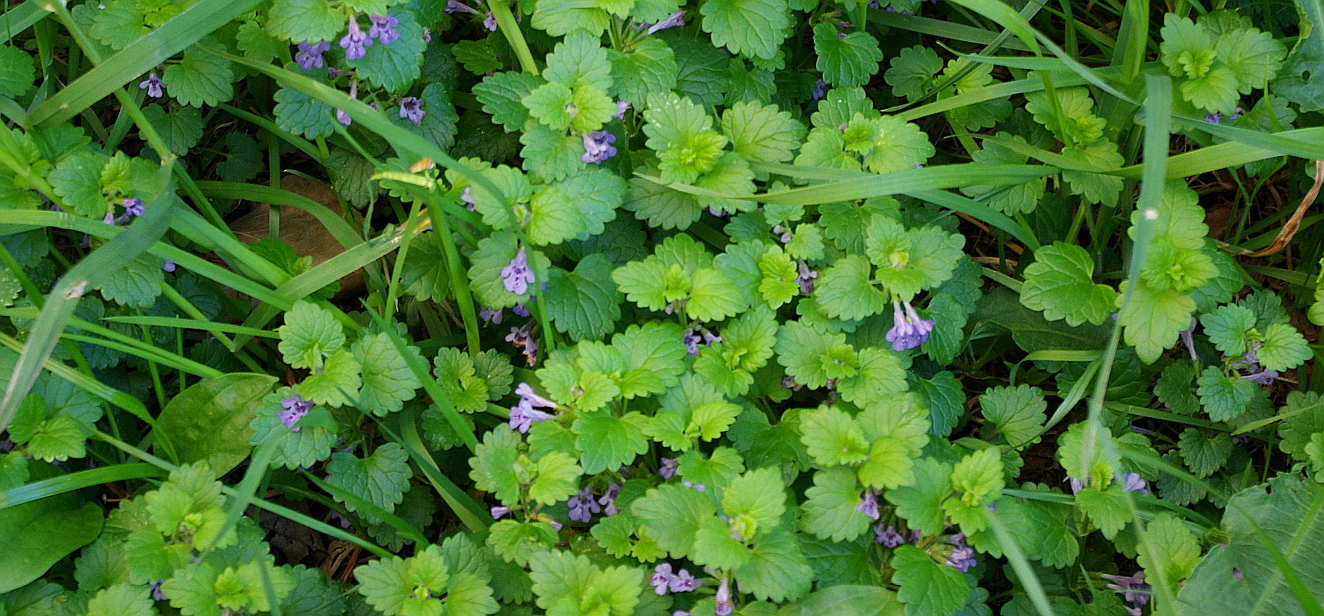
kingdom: Plantae
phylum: Tracheophyta
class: Magnoliopsida
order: Lamiales
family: Lamiaceae
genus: Glechoma
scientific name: Glechoma hederacea
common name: Ground ivy
